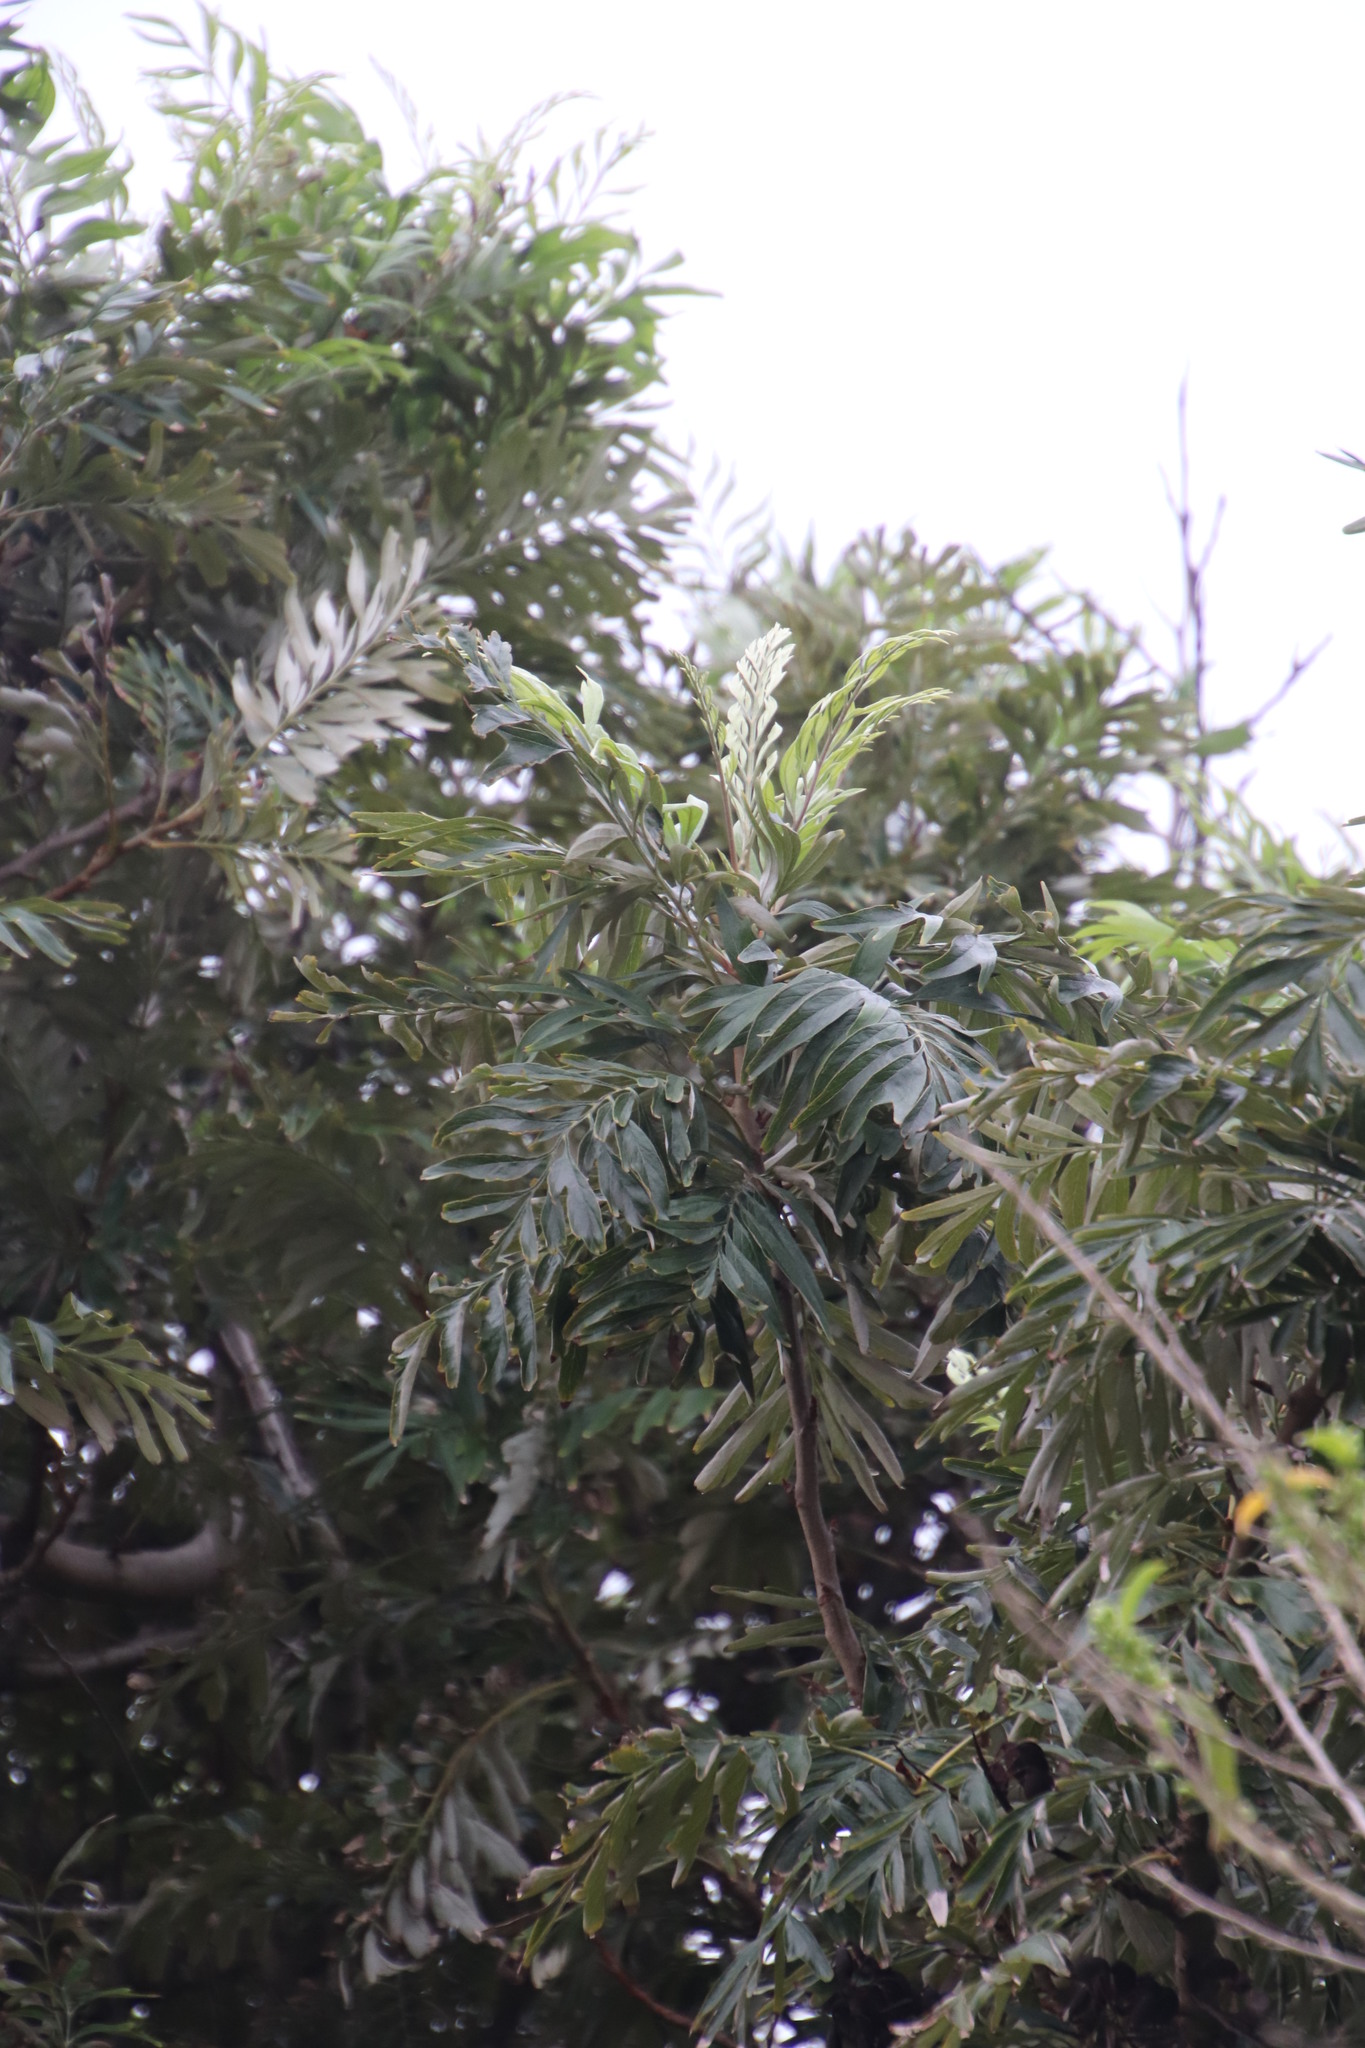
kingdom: Plantae
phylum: Tracheophyta
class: Magnoliopsida
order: Proteales
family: Proteaceae
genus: Grevillea
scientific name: Grevillea robusta
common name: Silkoak
